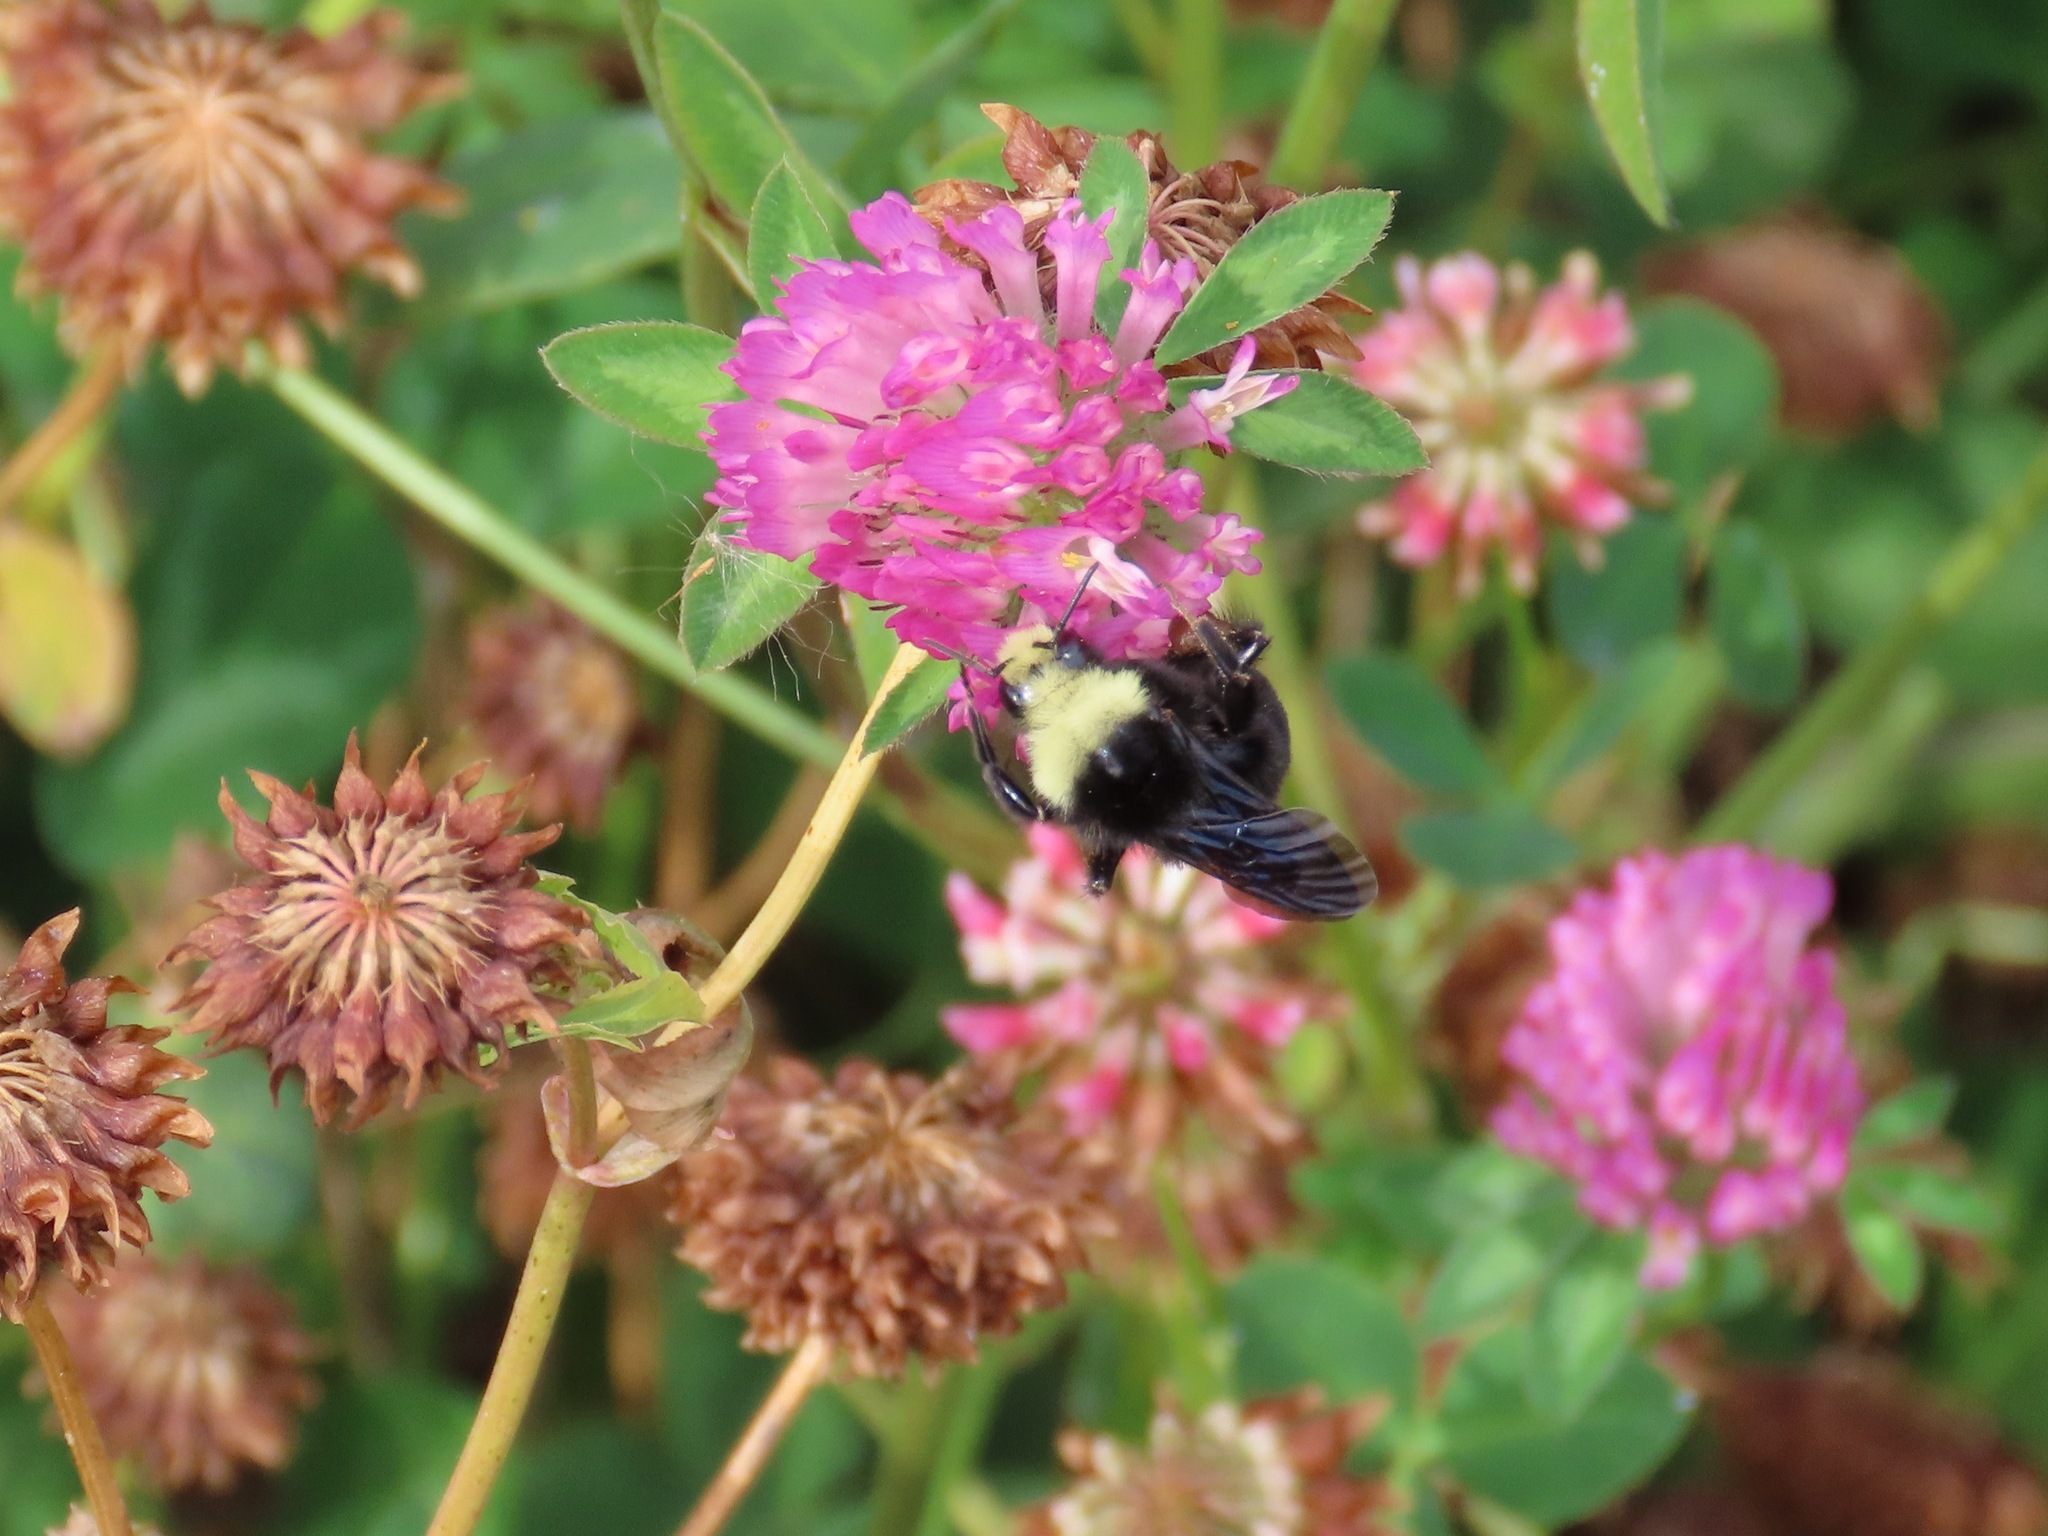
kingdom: Animalia
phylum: Arthropoda
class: Insecta
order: Hymenoptera
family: Apidae
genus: Bombus
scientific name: Bombus vosnesenskii
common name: Vosnesensky bumble bee
